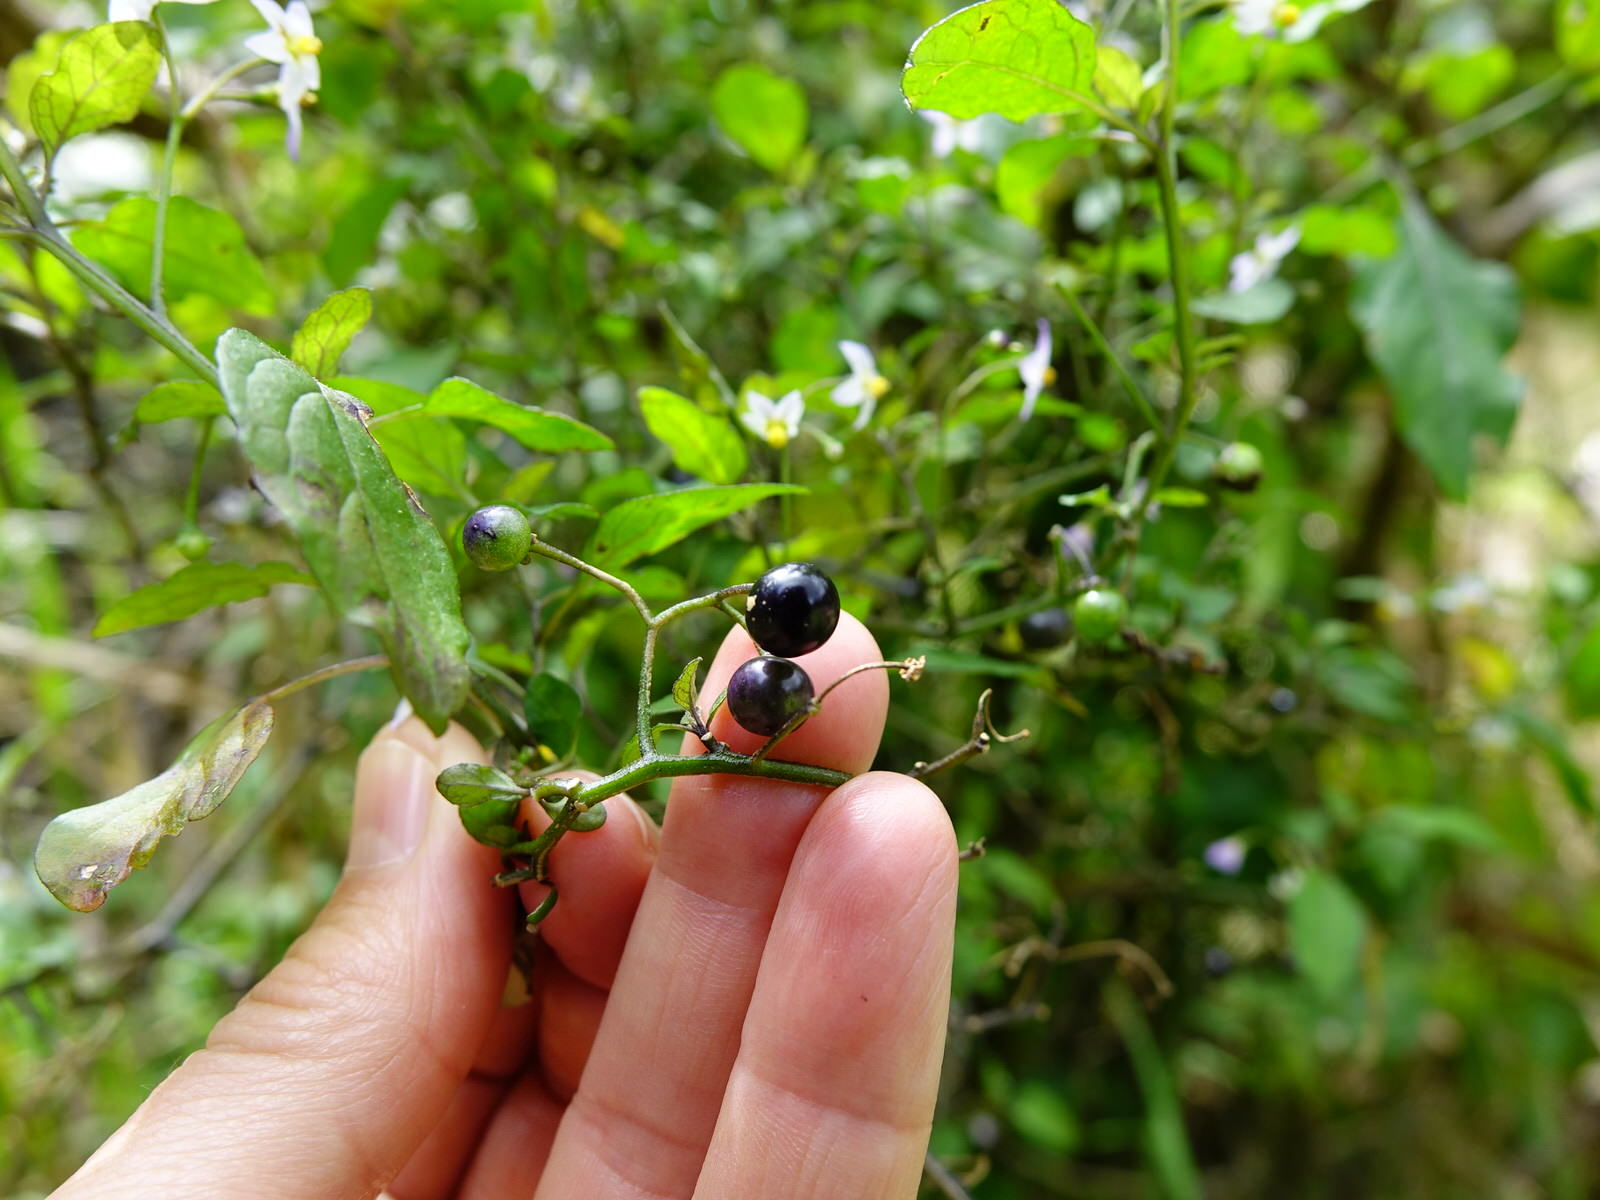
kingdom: Plantae
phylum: Tracheophyta
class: Magnoliopsida
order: Solanales
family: Solanaceae
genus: Solanum
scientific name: Solanum nigrum
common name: Black nightshade
